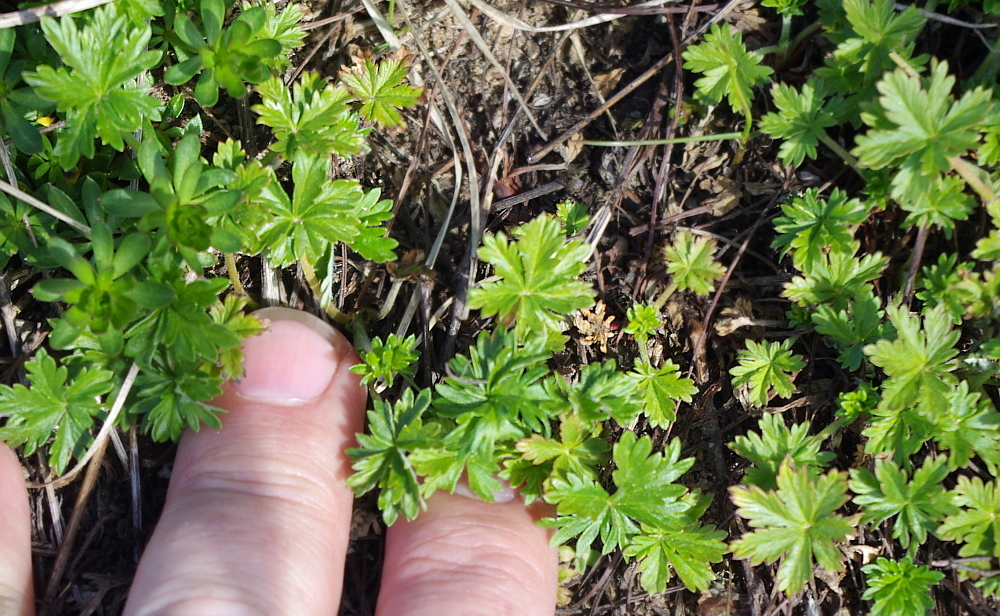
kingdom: Plantae
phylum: Tracheophyta
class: Magnoliopsida
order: Rosales
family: Rosaceae
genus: Potentilla
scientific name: Potentilla argentea
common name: Hoary cinquefoil
